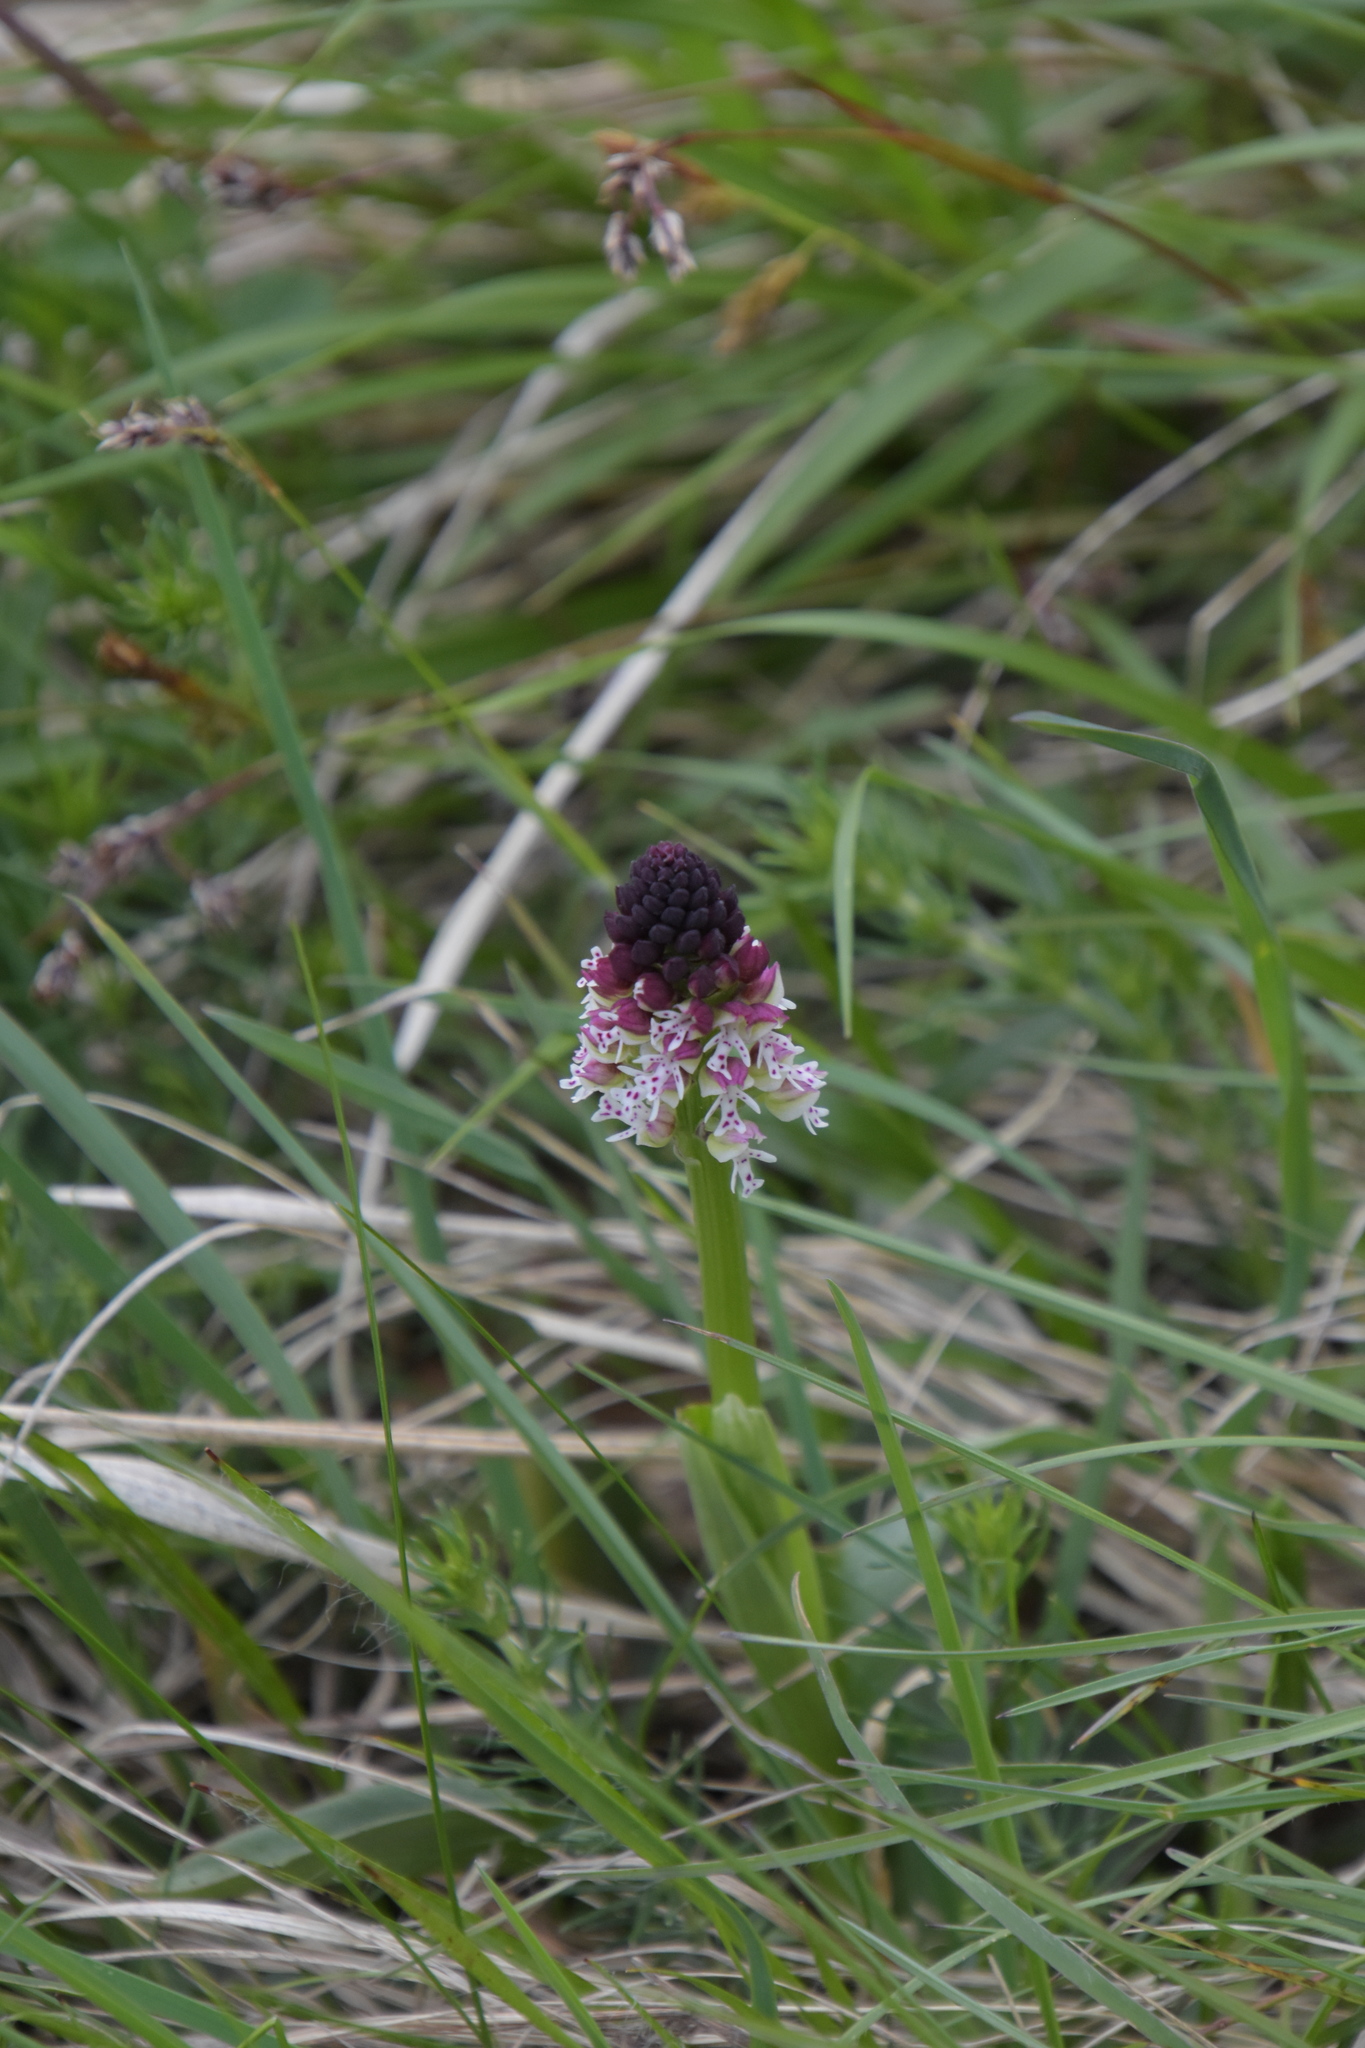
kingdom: Plantae
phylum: Tracheophyta
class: Liliopsida
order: Asparagales
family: Orchidaceae
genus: Neotinea
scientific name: Neotinea ustulata
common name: Burnt orchid
